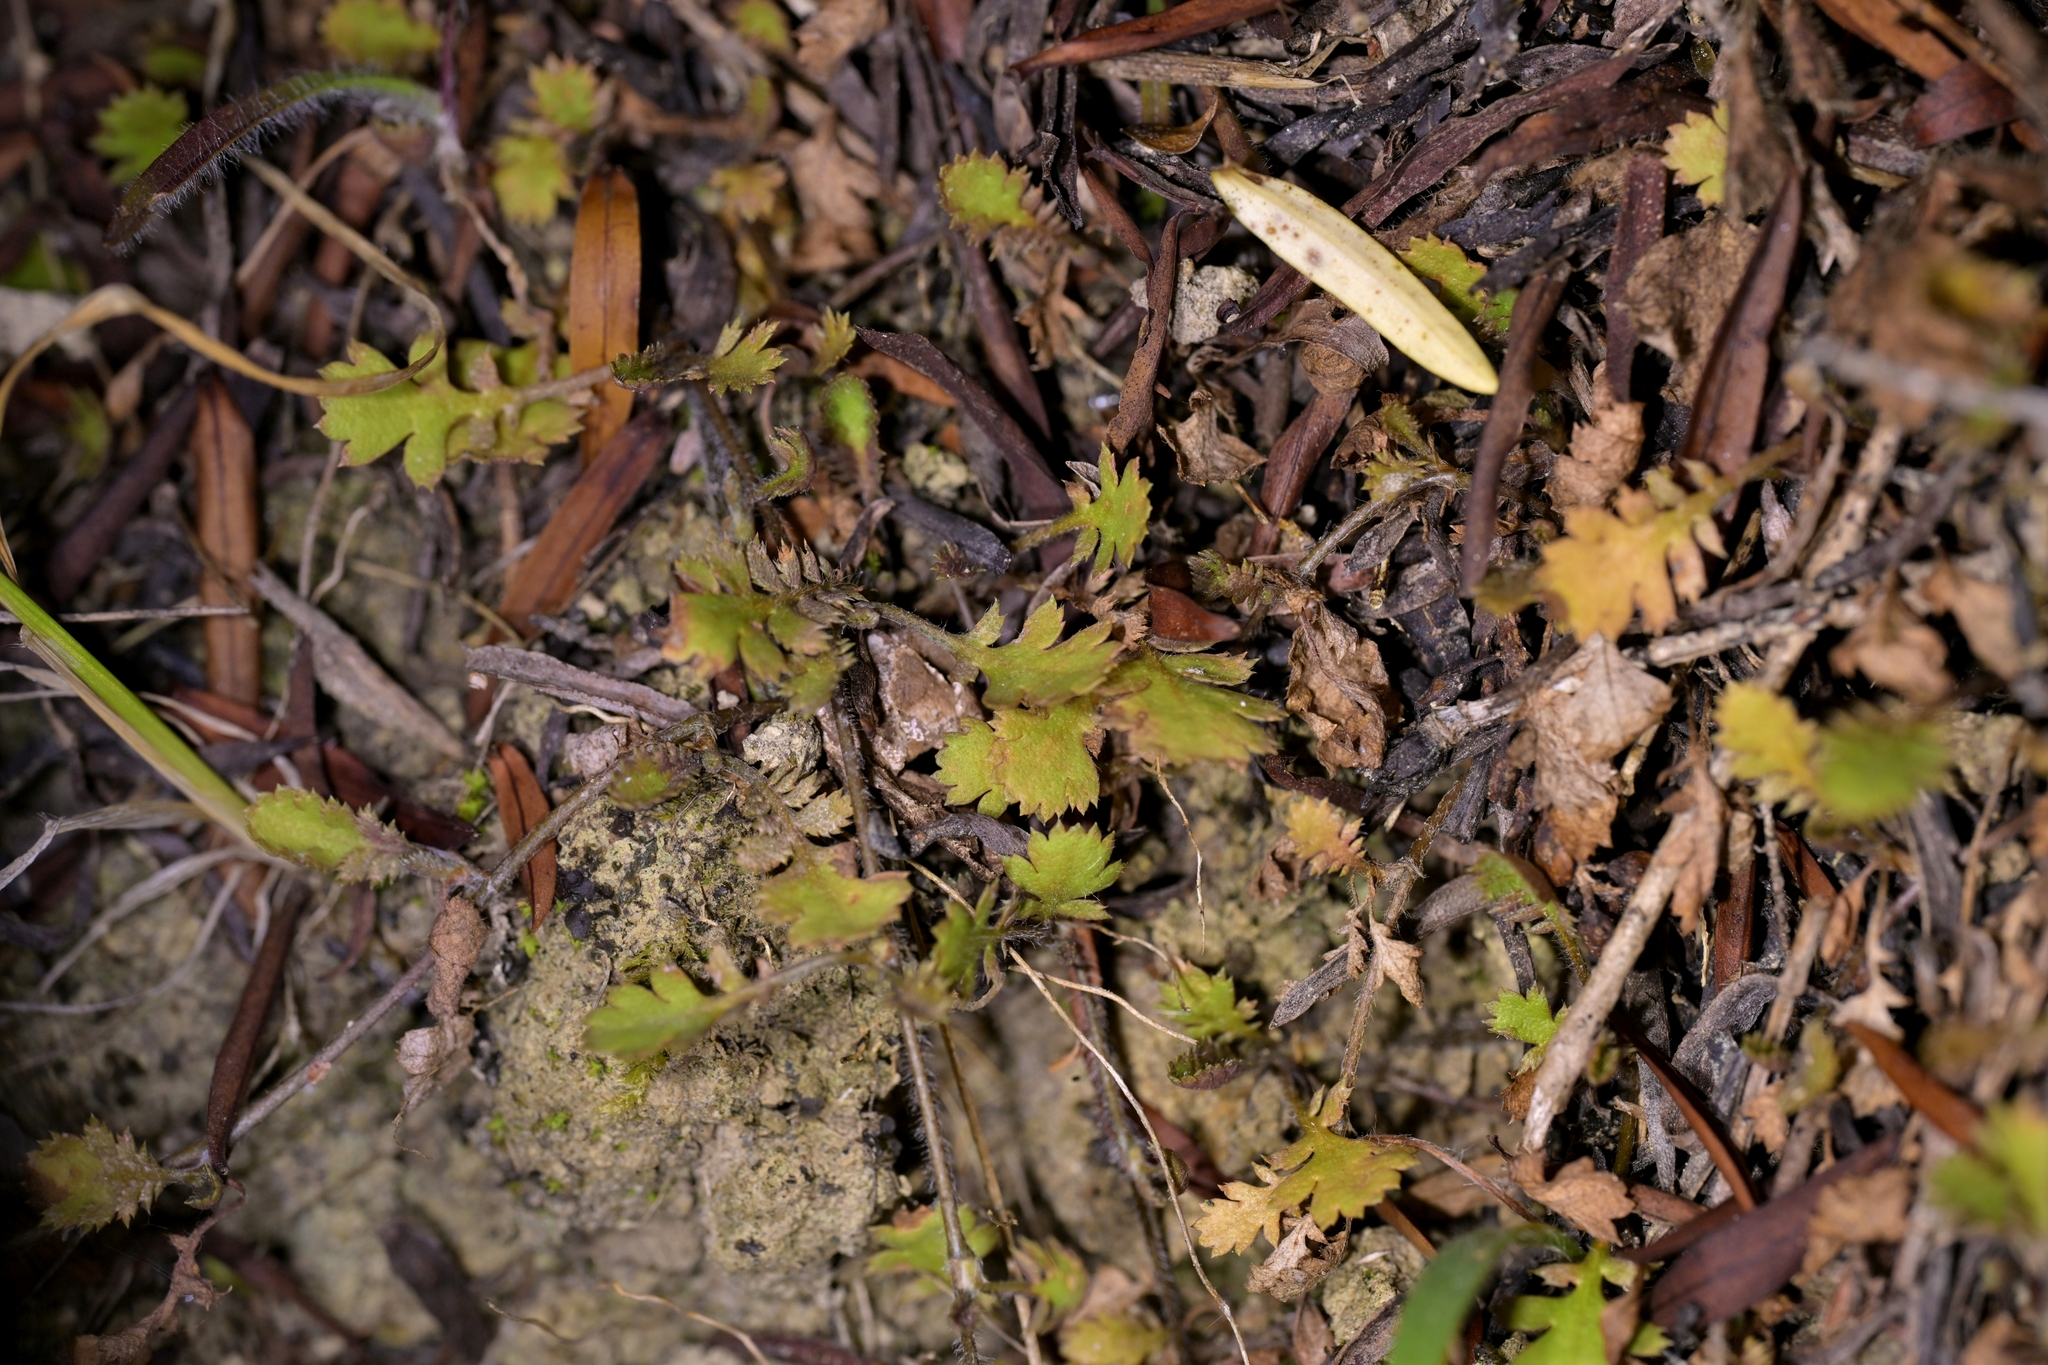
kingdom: Plantae
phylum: Tracheophyta
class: Magnoliopsida
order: Asterales
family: Asteraceae
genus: Leptinella
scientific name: Leptinella squalida
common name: New zealand brass-buttons
